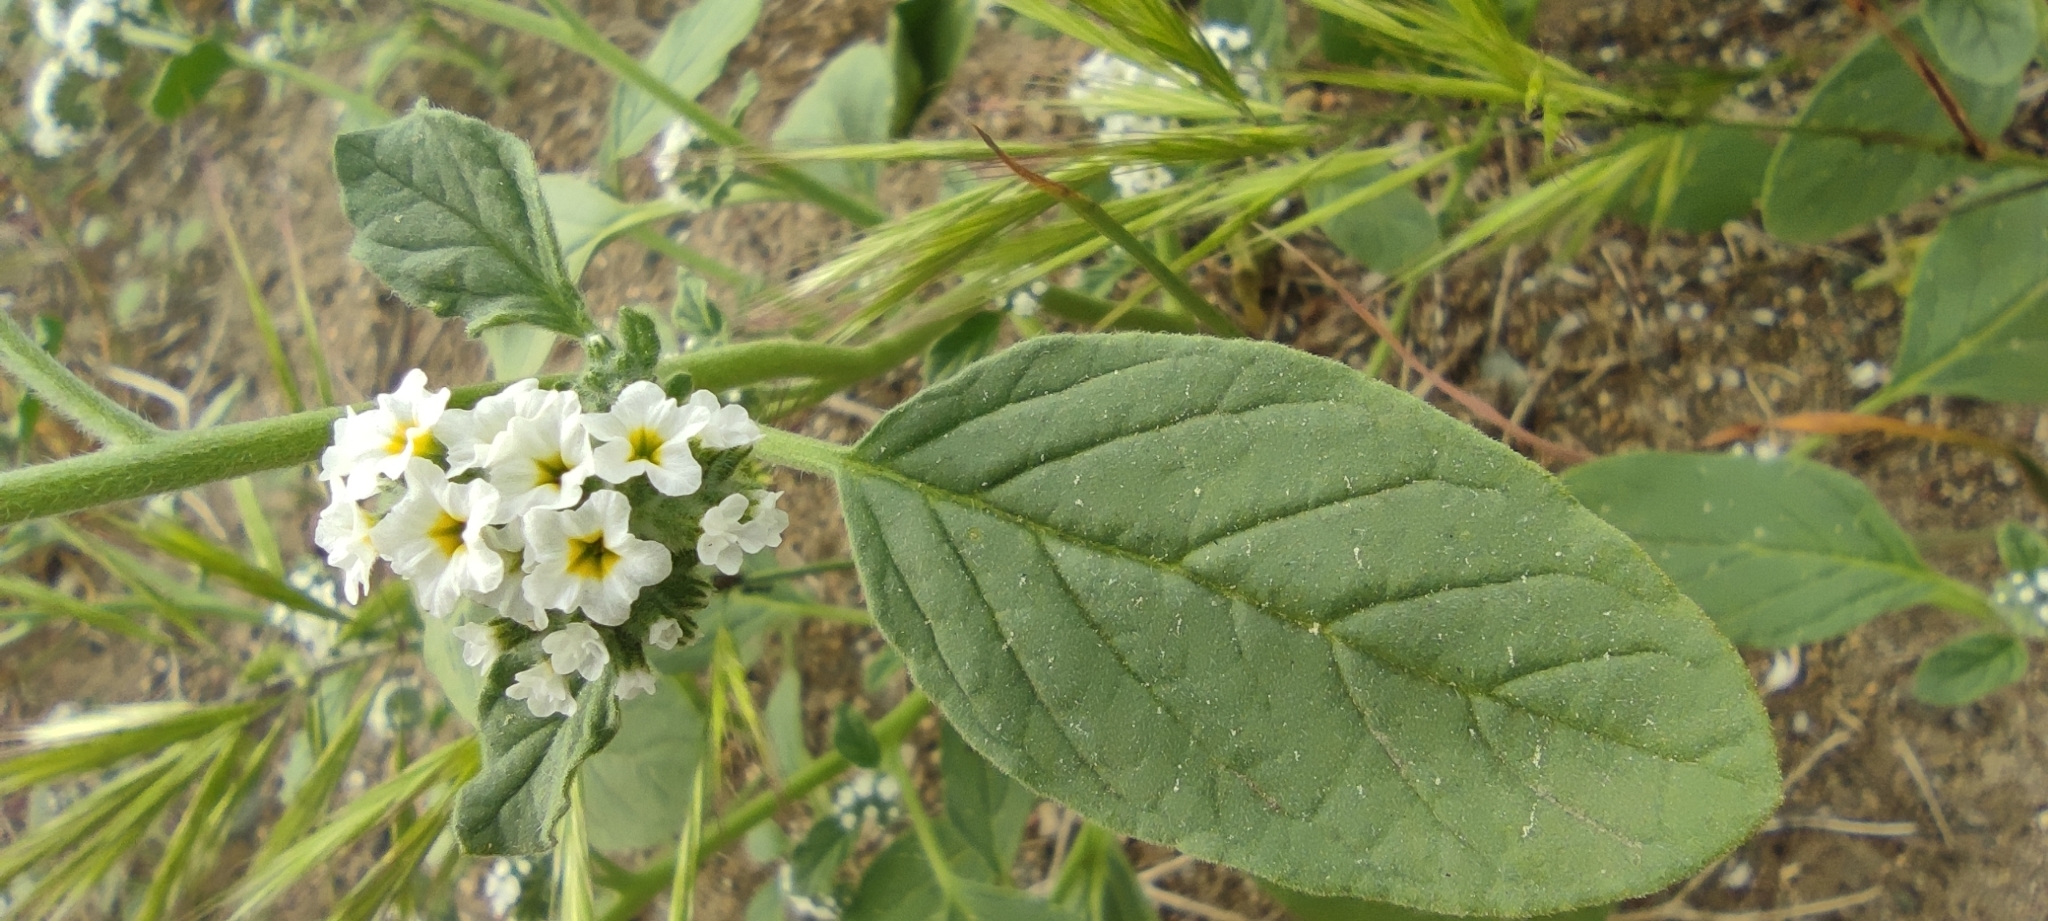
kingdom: Plantae
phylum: Tracheophyta
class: Magnoliopsida
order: Boraginales
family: Heliotropiaceae
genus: Heliotropium
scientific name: Heliotropium europaeum
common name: European heliotrope
